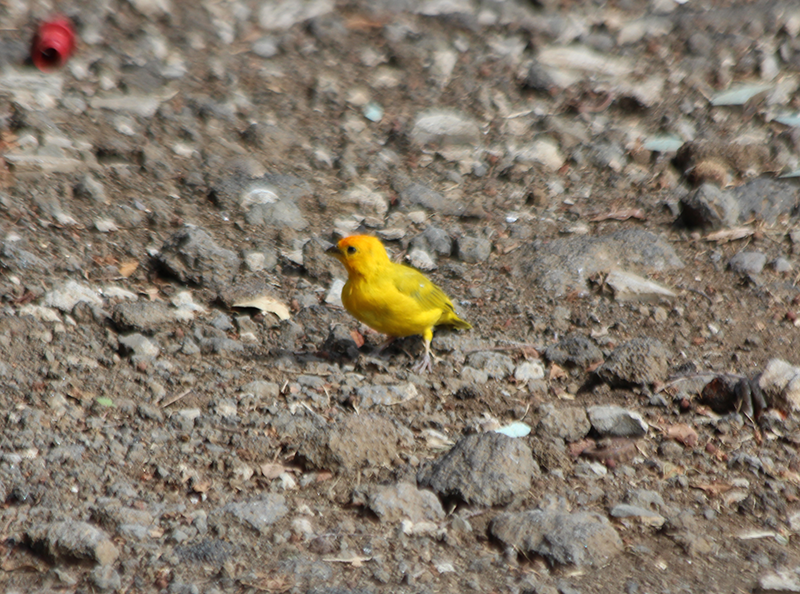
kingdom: Animalia
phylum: Chordata
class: Aves
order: Passeriformes
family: Thraupidae
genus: Sicalis
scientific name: Sicalis flaveola
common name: Saffron finch
